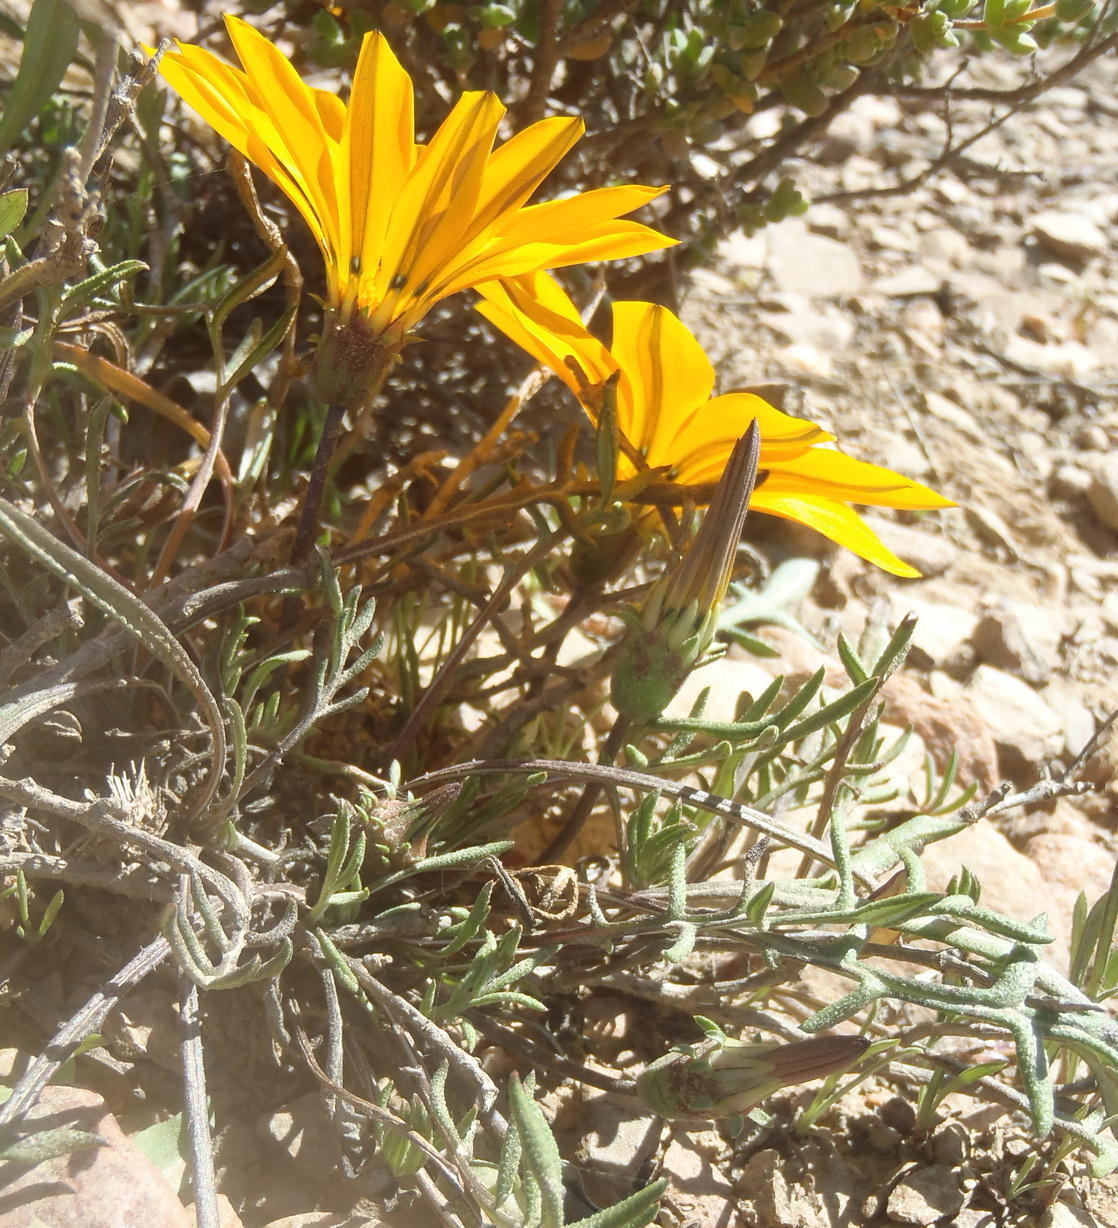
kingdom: Plantae
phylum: Tracheophyta
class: Magnoliopsida
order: Asterales
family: Asteraceae
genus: Gazania
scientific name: Gazania krebsiana
